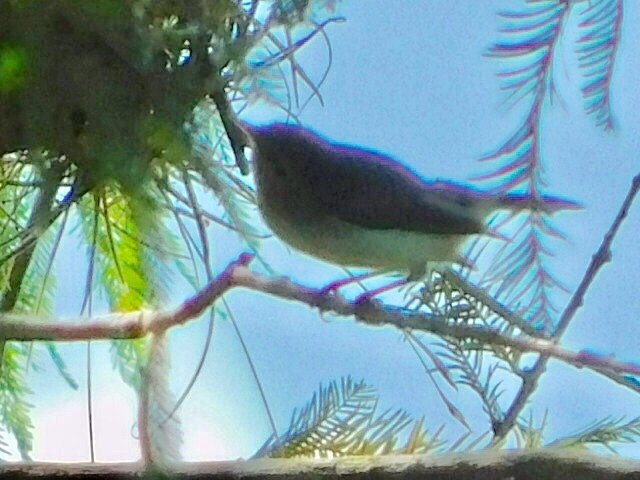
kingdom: Animalia
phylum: Chordata
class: Aves
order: Passeriformes
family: Polioptilidae
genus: Polioptila
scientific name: Polioptila caerulea
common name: Blue-gray gnatcatcher
